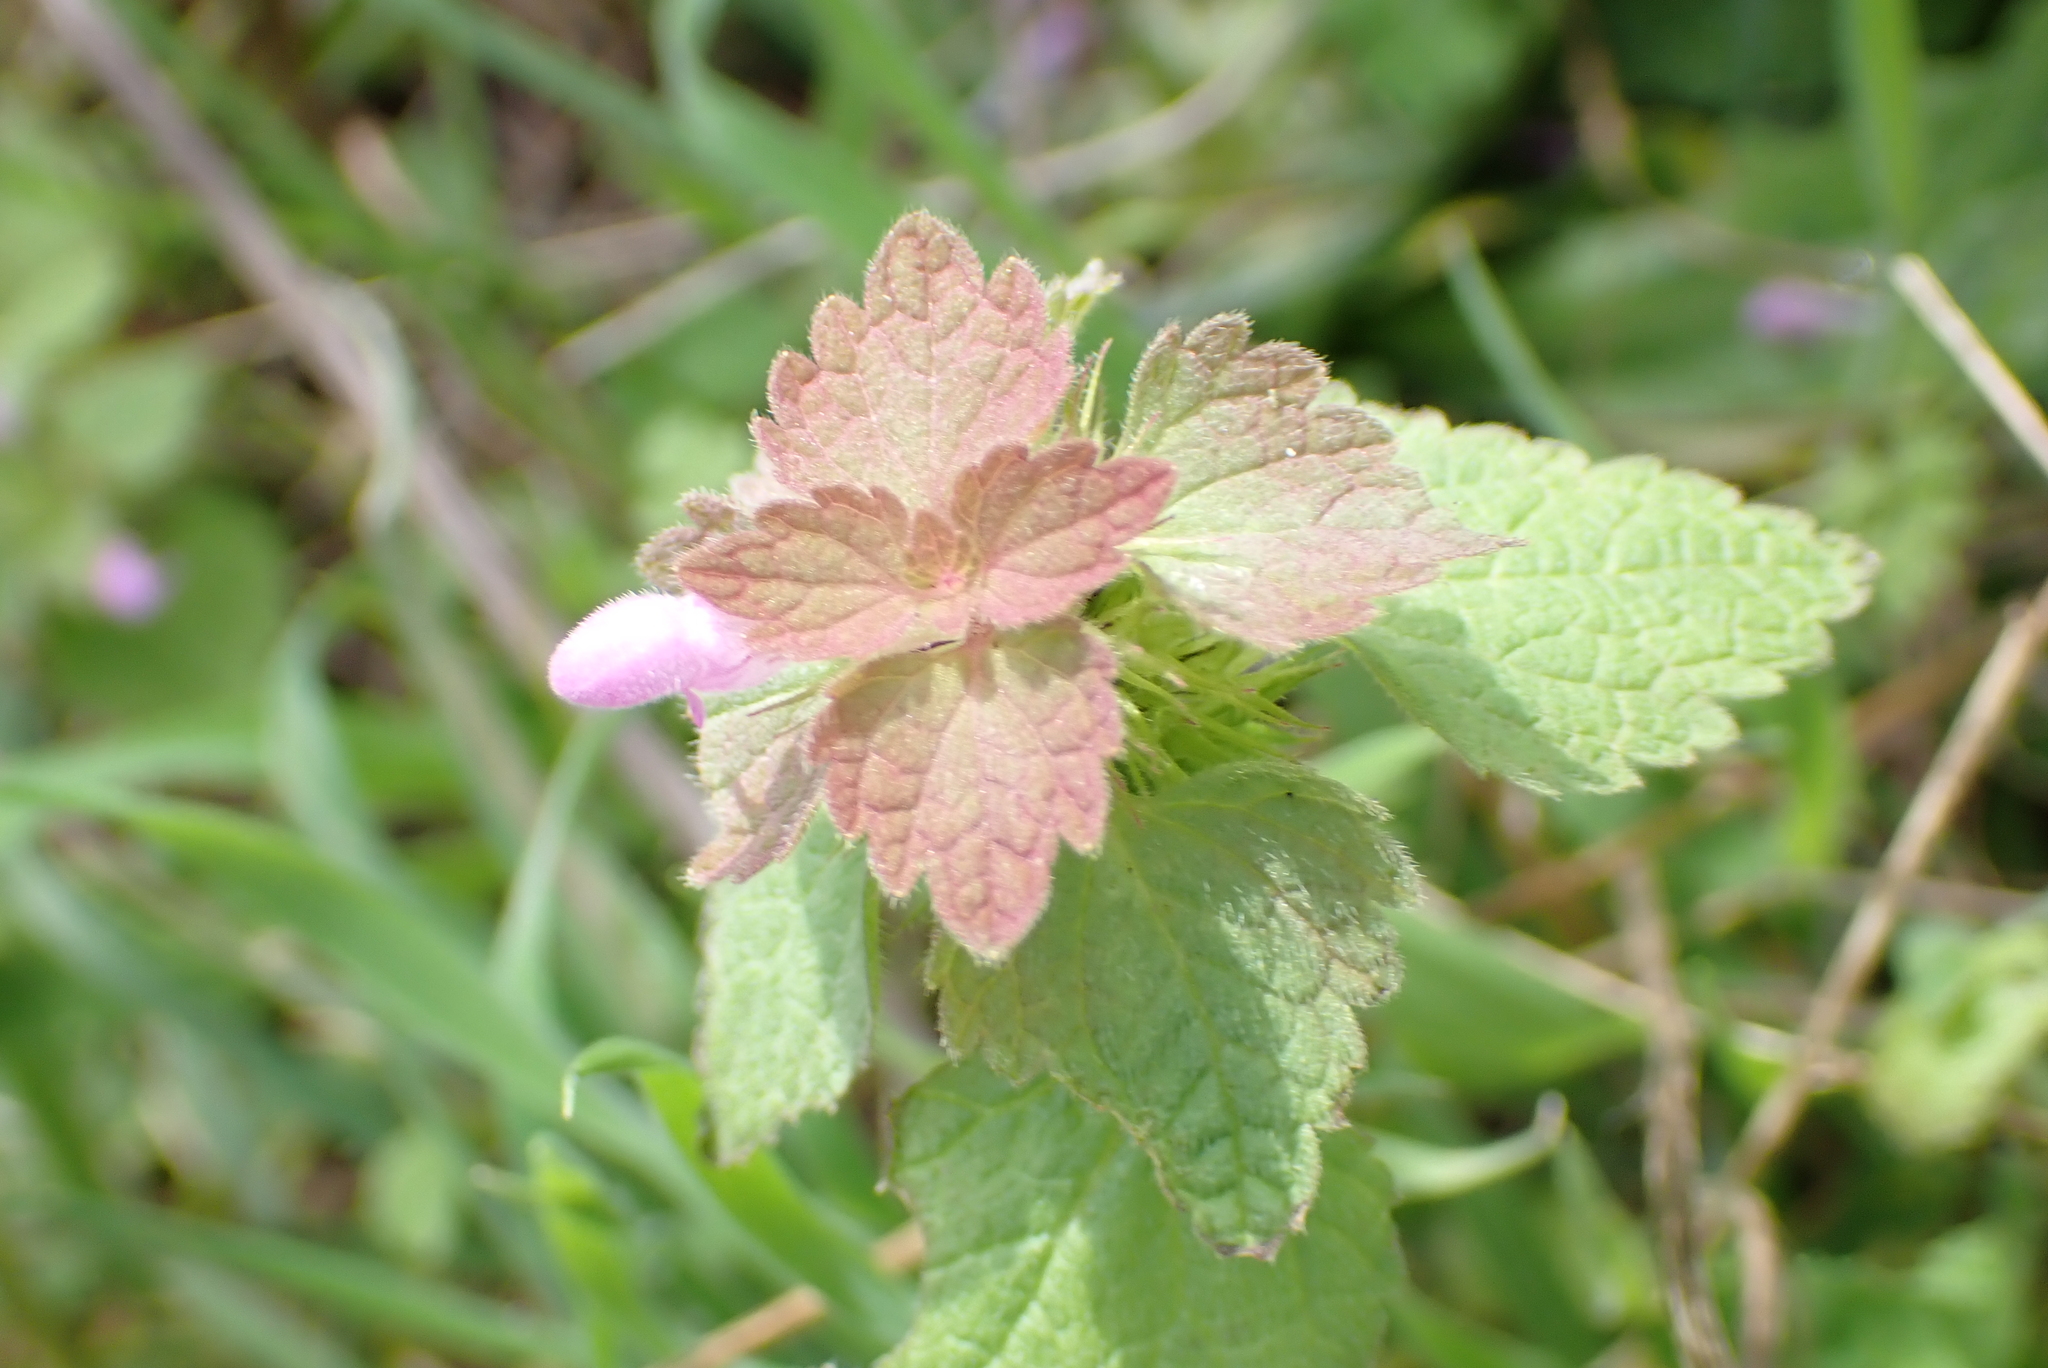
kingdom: Plantae
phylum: Tracheophyta
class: Magnoliopsida
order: Lamiales
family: Lamiaceae
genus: Lamium
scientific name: Lamium purpureum
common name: Red dead-nettle
